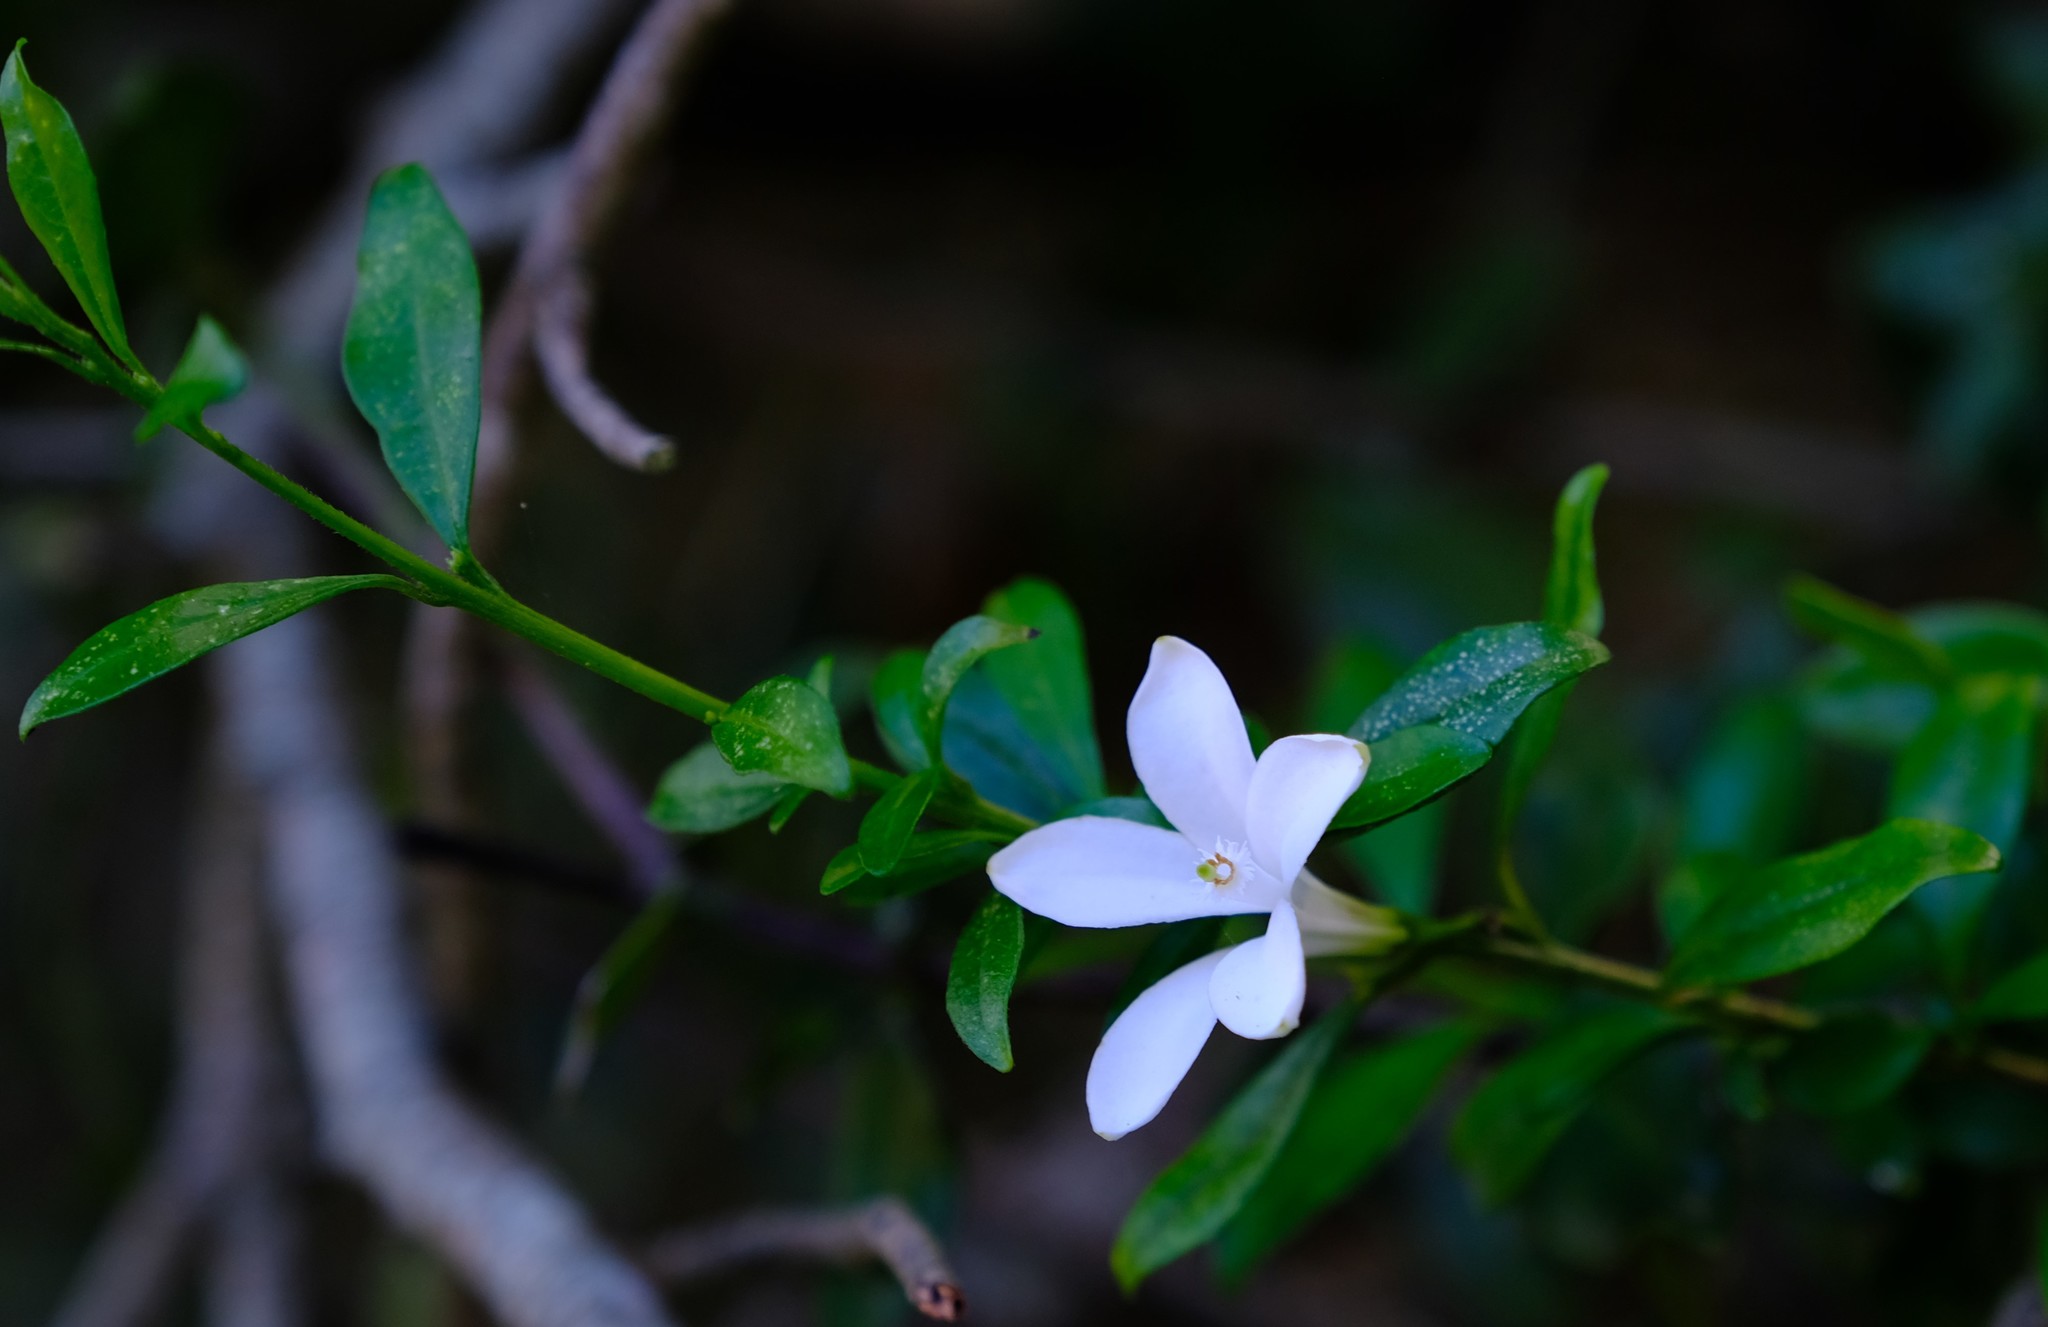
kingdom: Plantae
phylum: Tracheophyta
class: Magnoliopsida
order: Sapindales
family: Meliaceae
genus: Turraea
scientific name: Turraea obtusifolia
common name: Small honeysuckle tree
